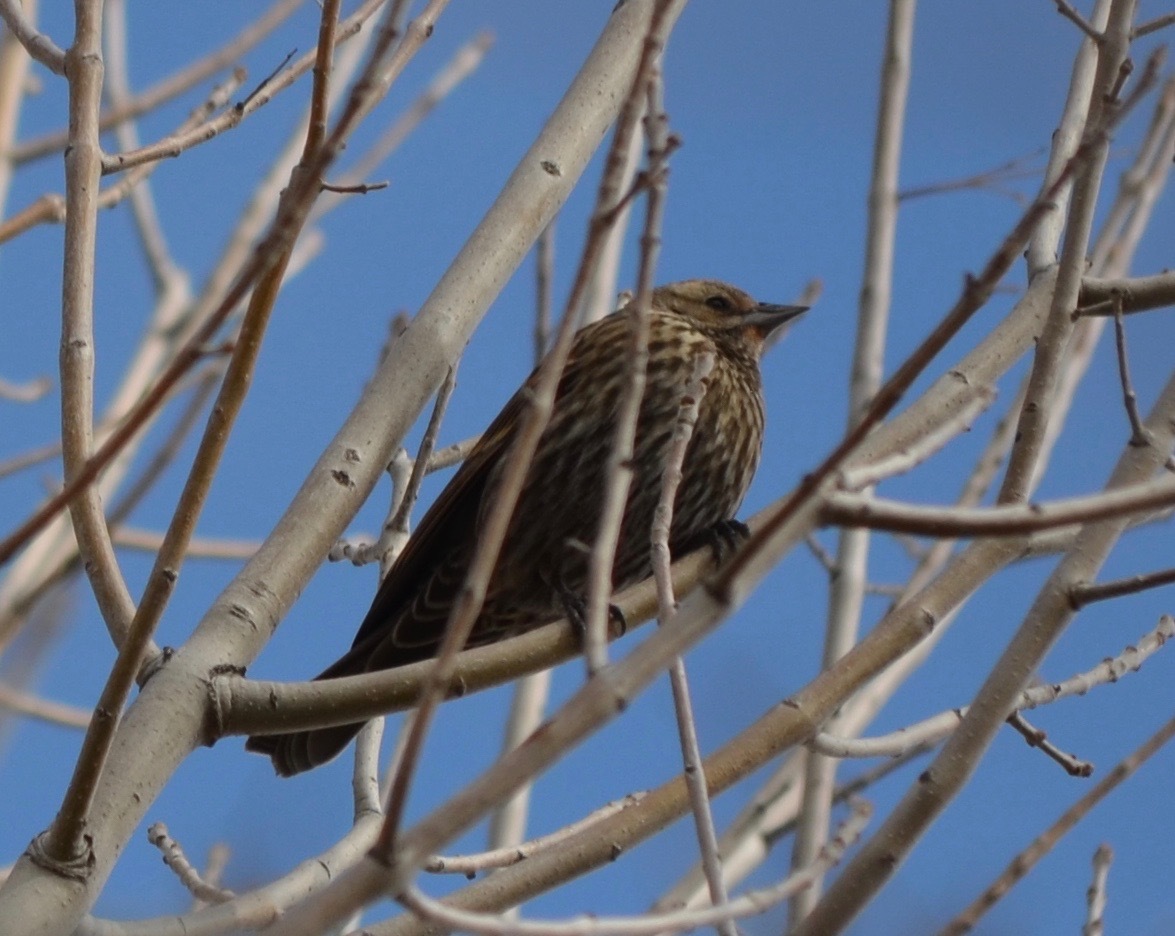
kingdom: Animalia
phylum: Chordata
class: Aves
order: Passeriformes
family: Icteridae
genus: Agelaius
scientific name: Agelaius phoeniceus
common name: Red-winged blackbird
